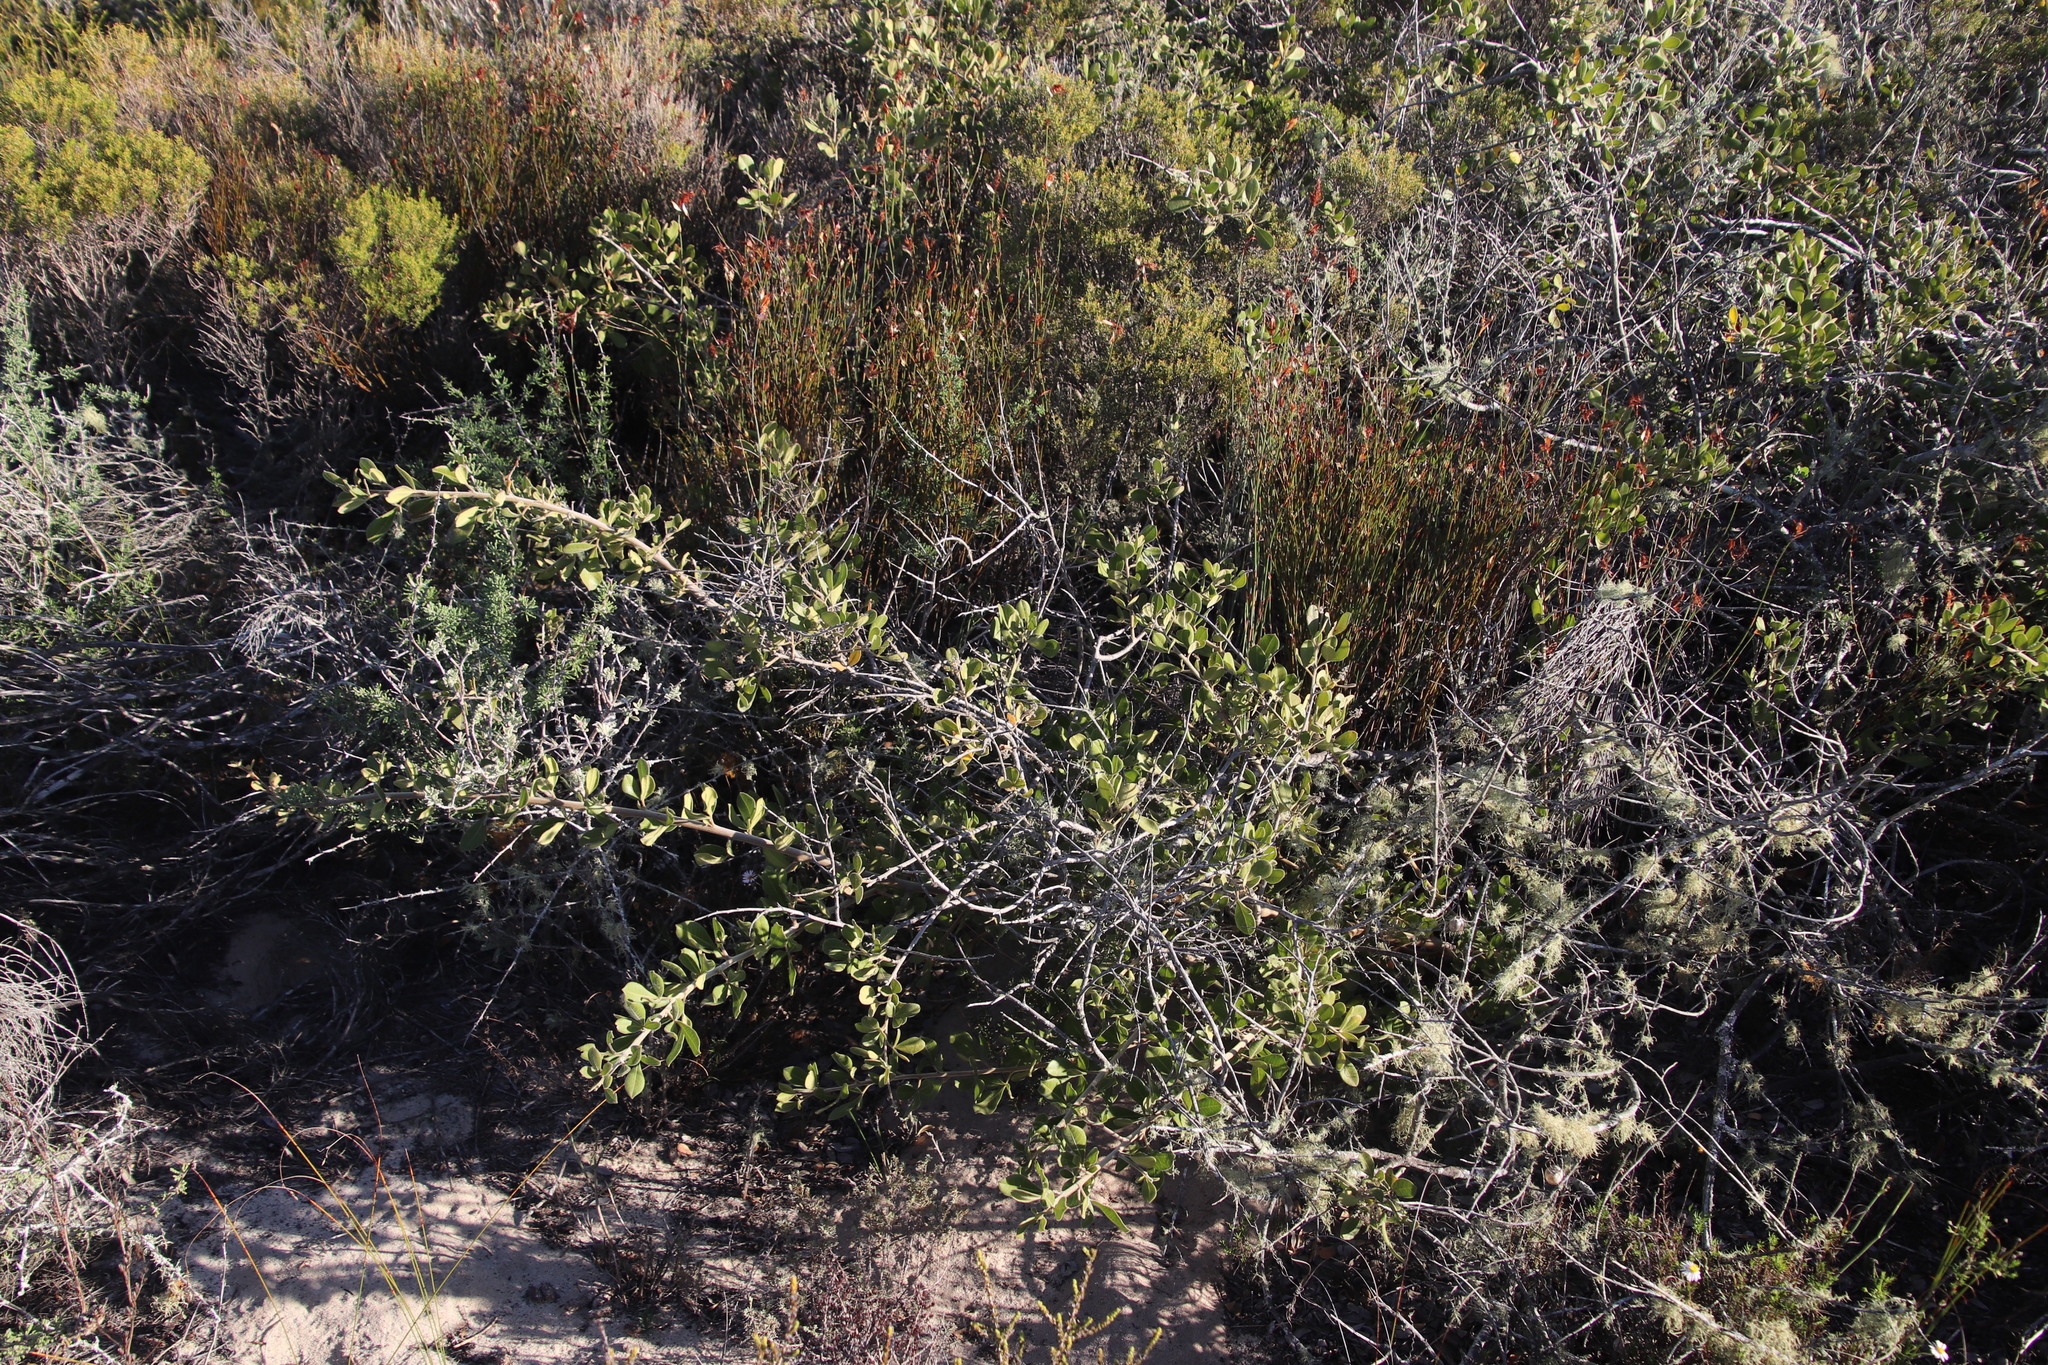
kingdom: Plantae
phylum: Tracheophyta
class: Magnoliopsida
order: Sapindales
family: Anacardiaceae
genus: Searsia
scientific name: Searsia laevigata
